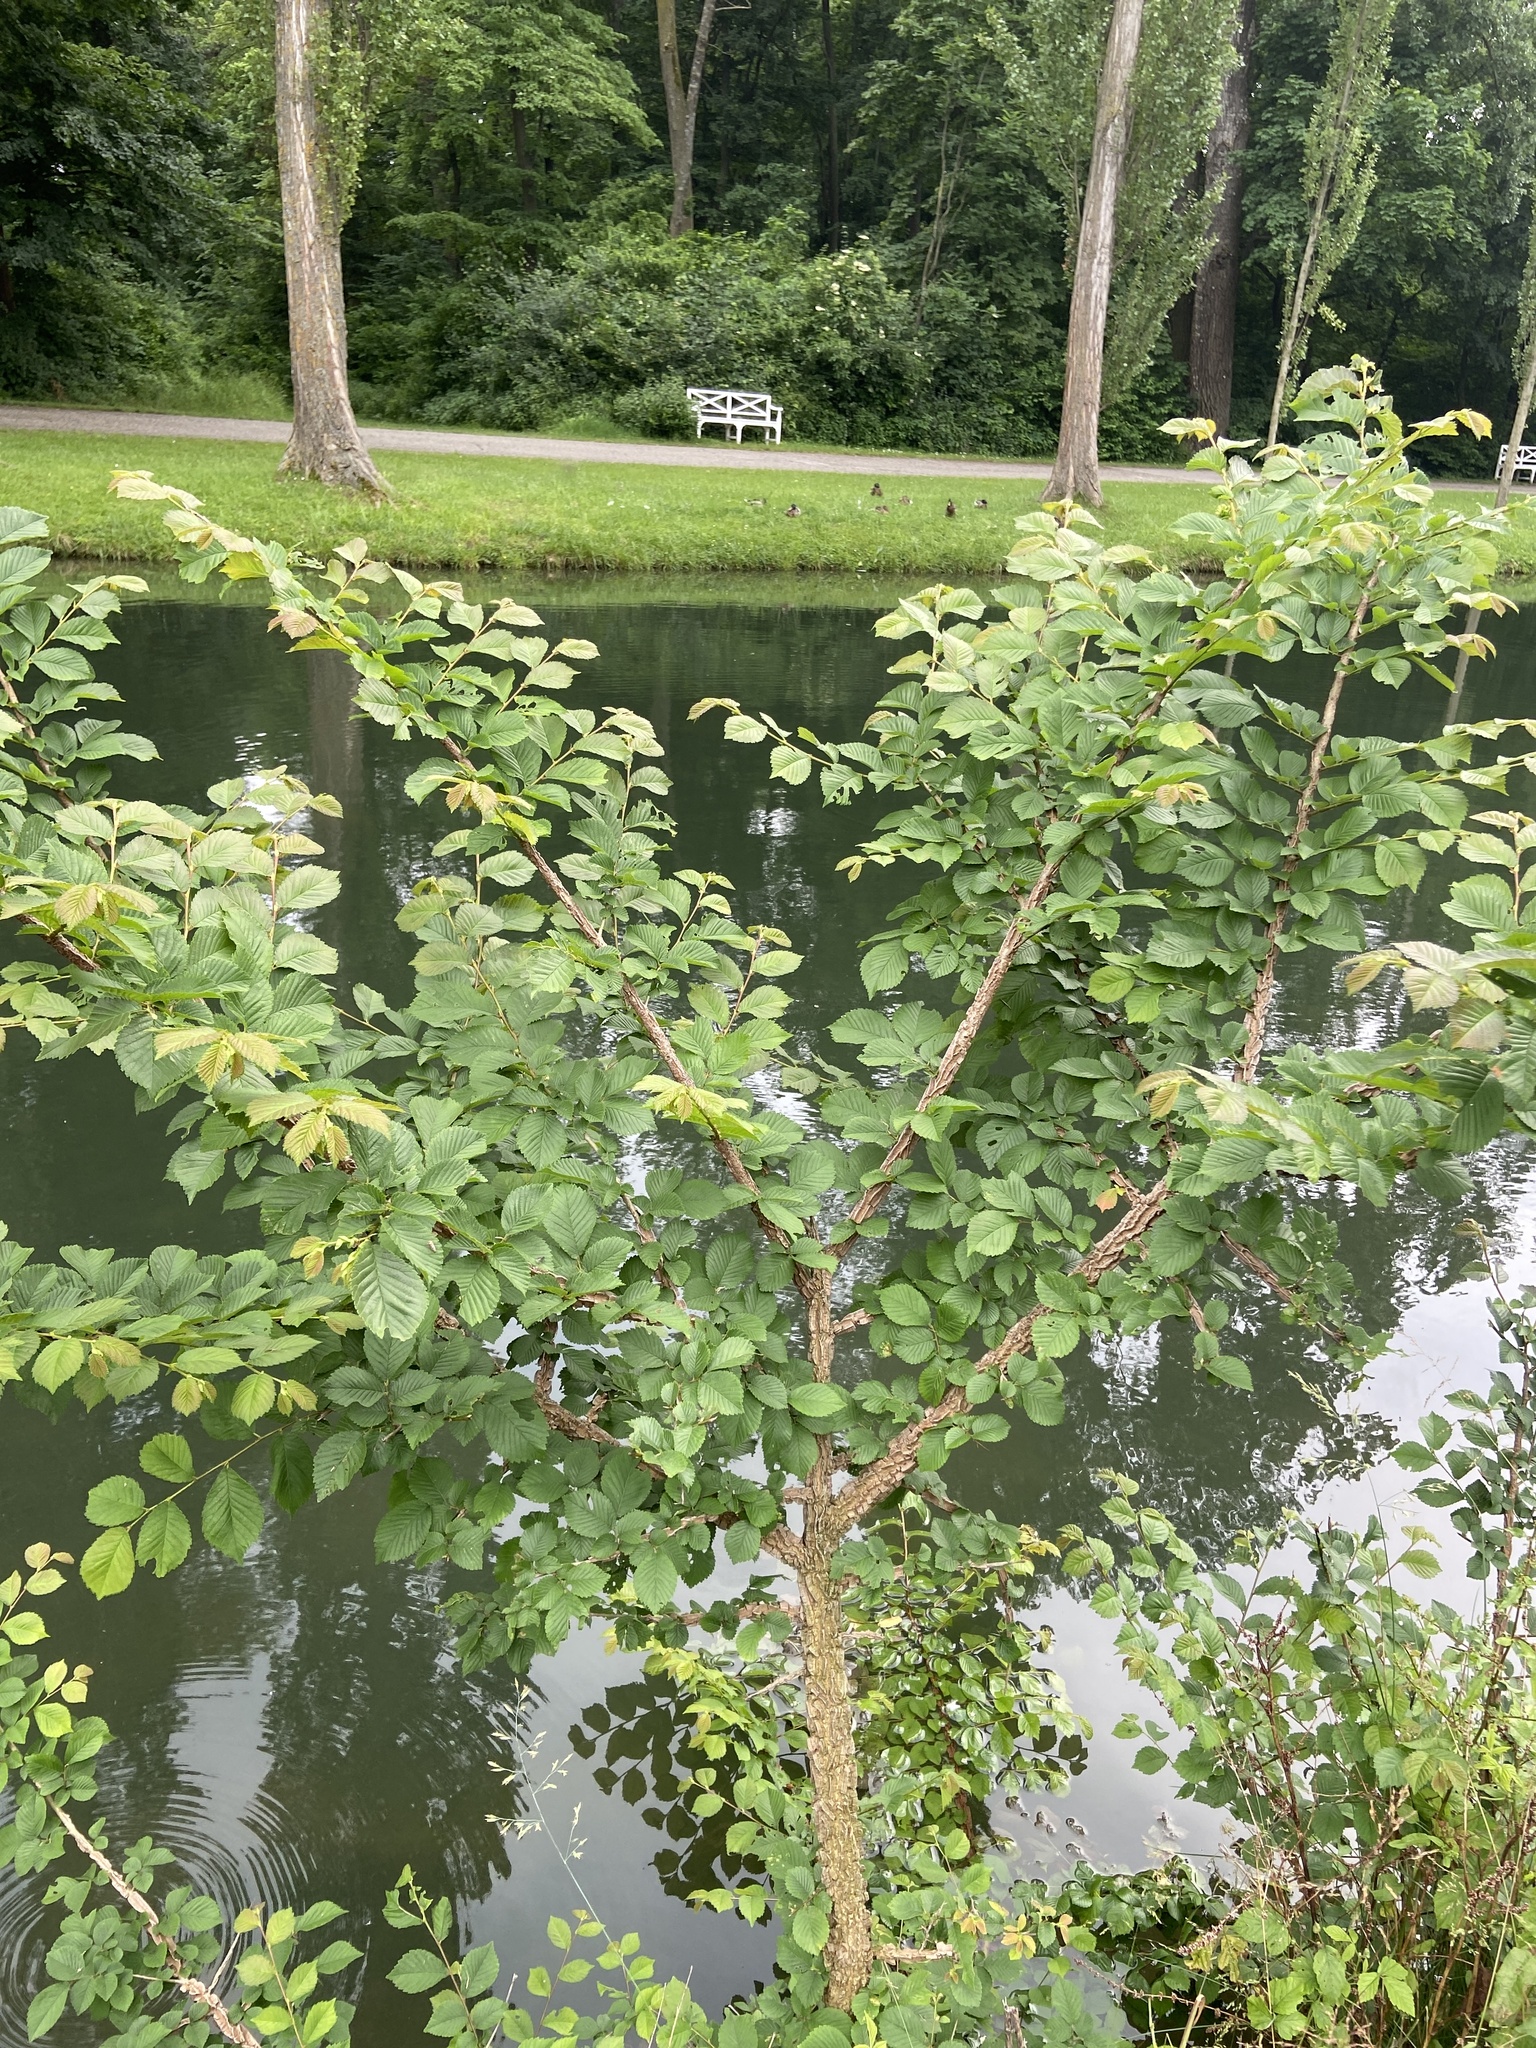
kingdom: Plantae
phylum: Tracheophyta
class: Magnoliopsida
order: Rosales
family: Ulmaceae
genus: Ulmus
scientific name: Ulmus minor
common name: Small-leaved elm
